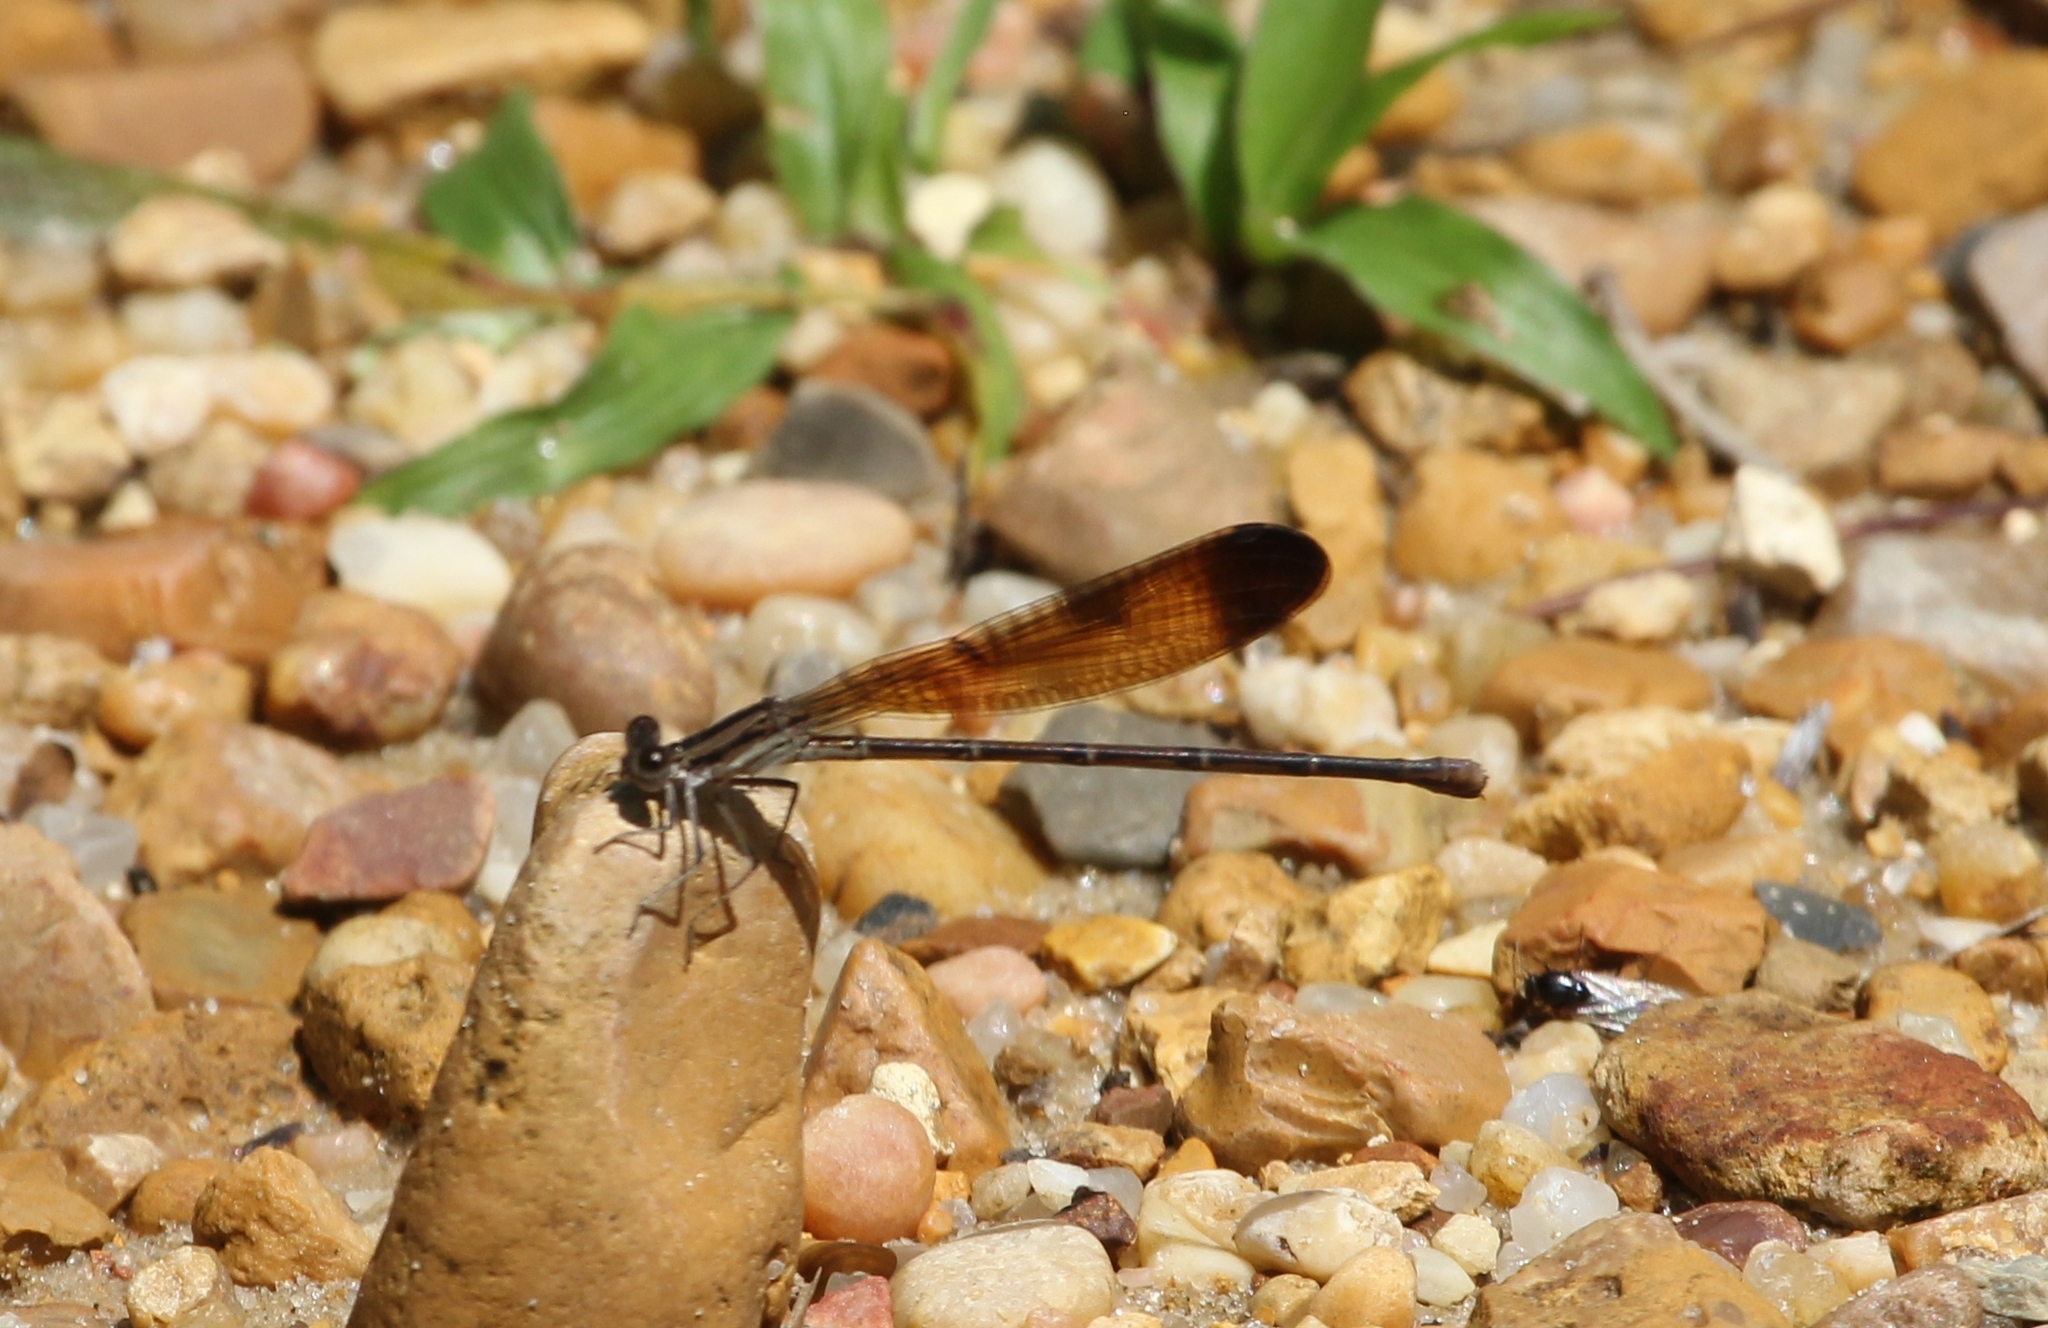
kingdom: Animalia
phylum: Arthropoda
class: Insecta
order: Odonata
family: Coenagrionidae
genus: Argia
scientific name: Argia fumipennis
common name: Variable dancer
